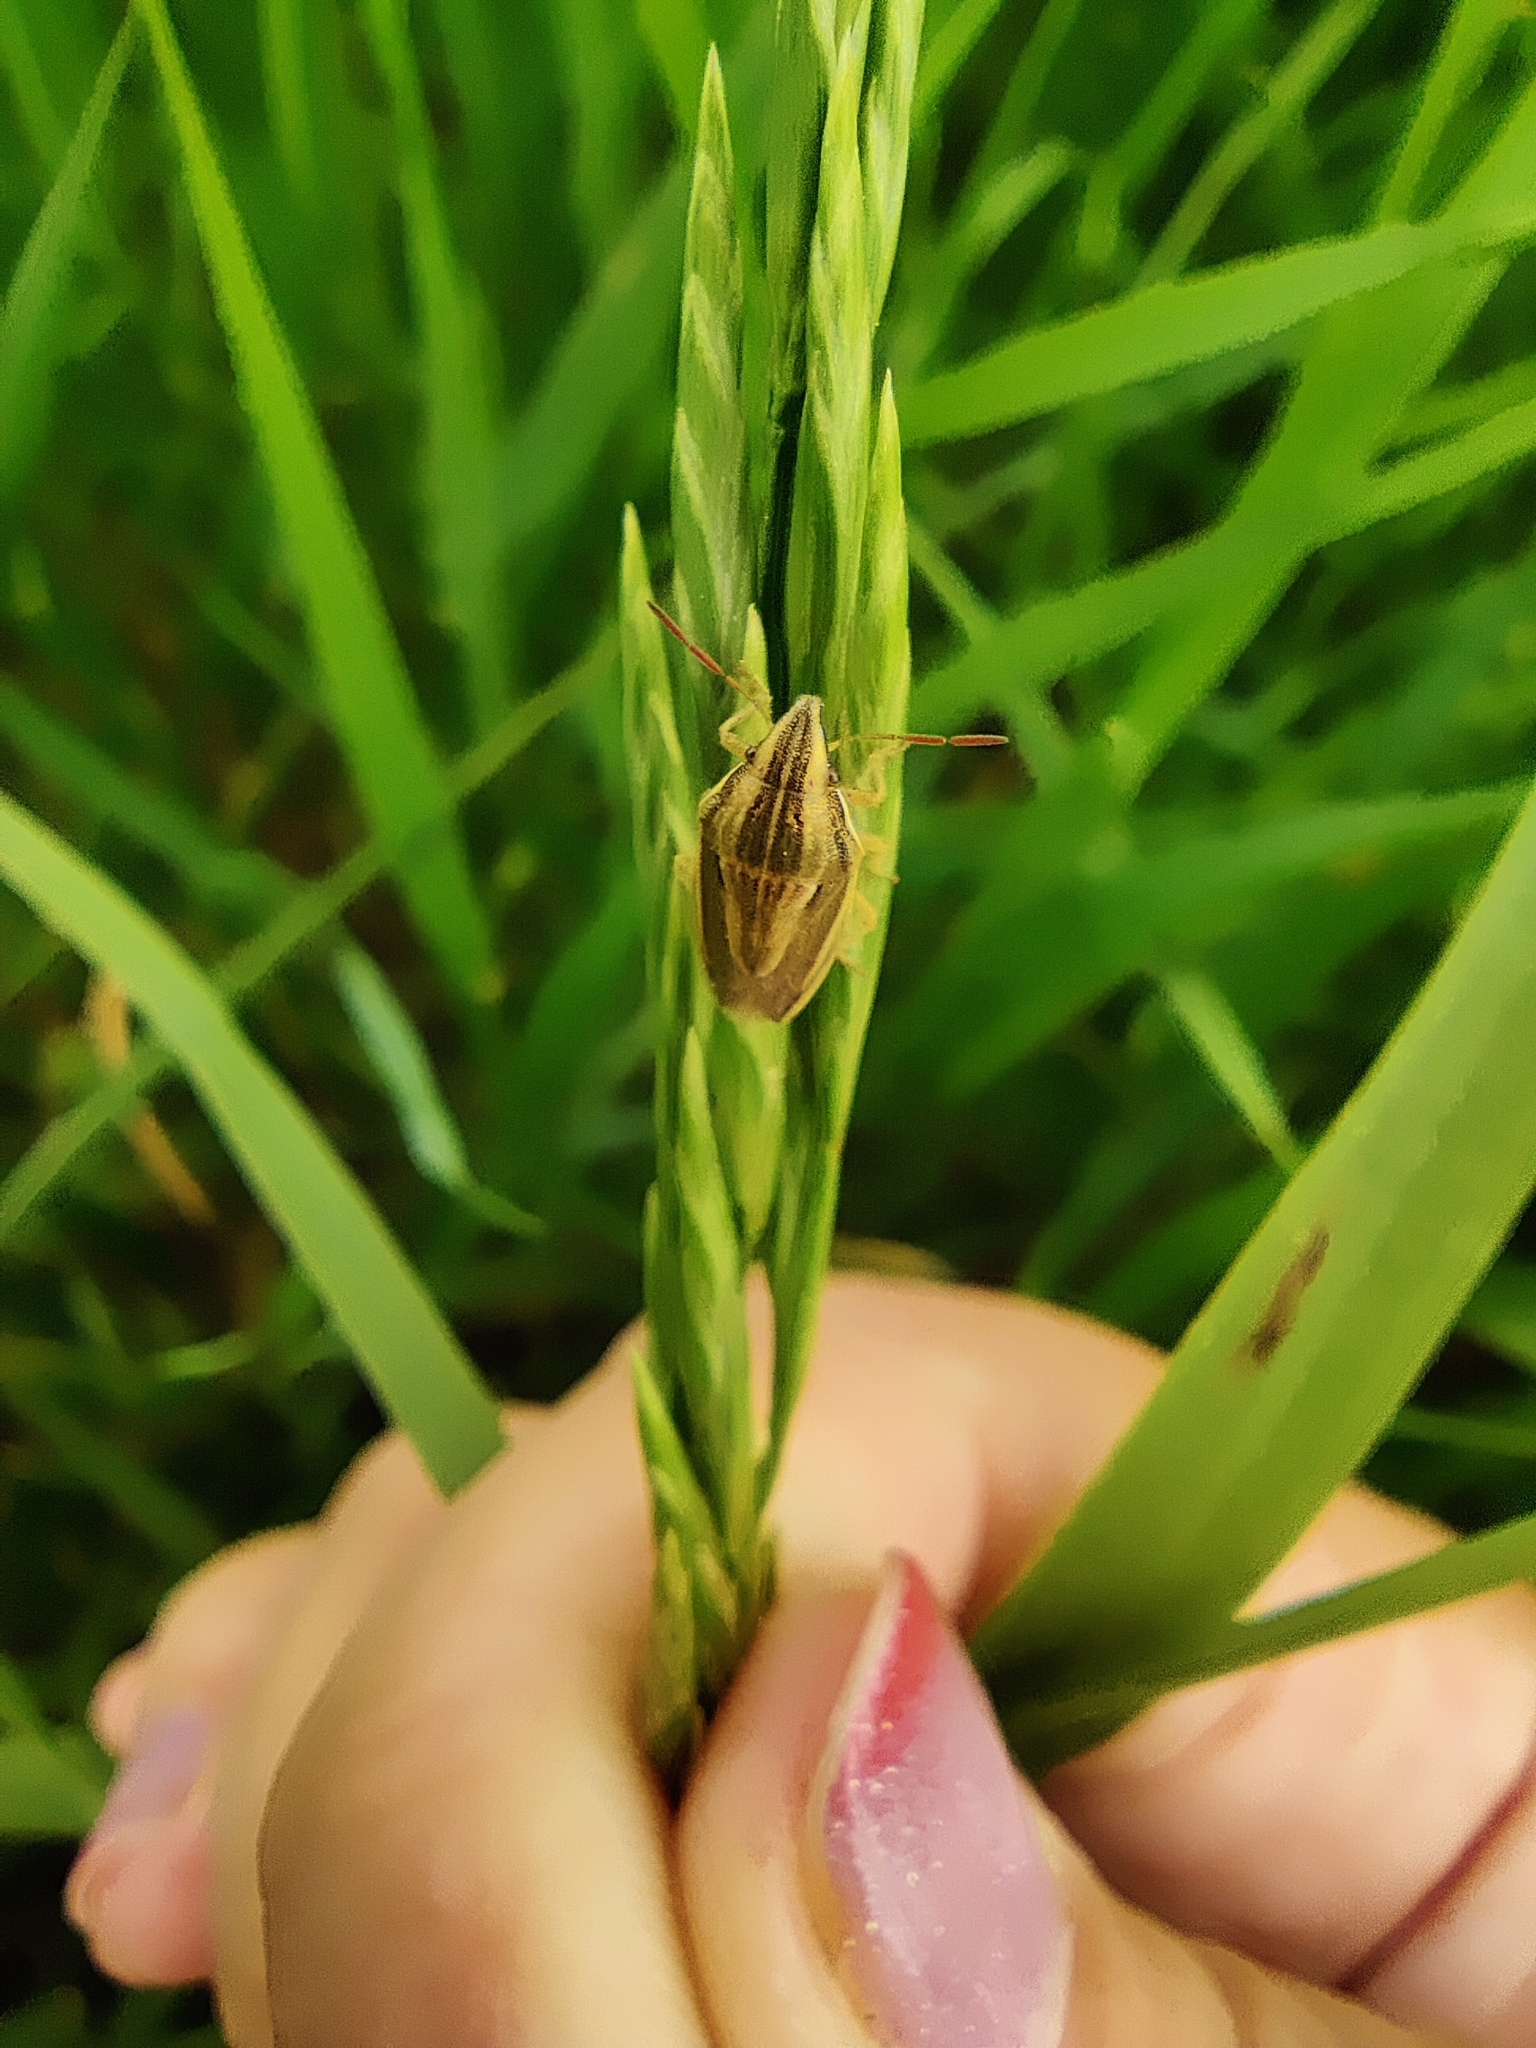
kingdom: Animalia
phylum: Arthropoda
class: Insecta
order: Hemiptera
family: Pentatomidae
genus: Aelia
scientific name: Aelia acuminata
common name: Bishop's mitre
